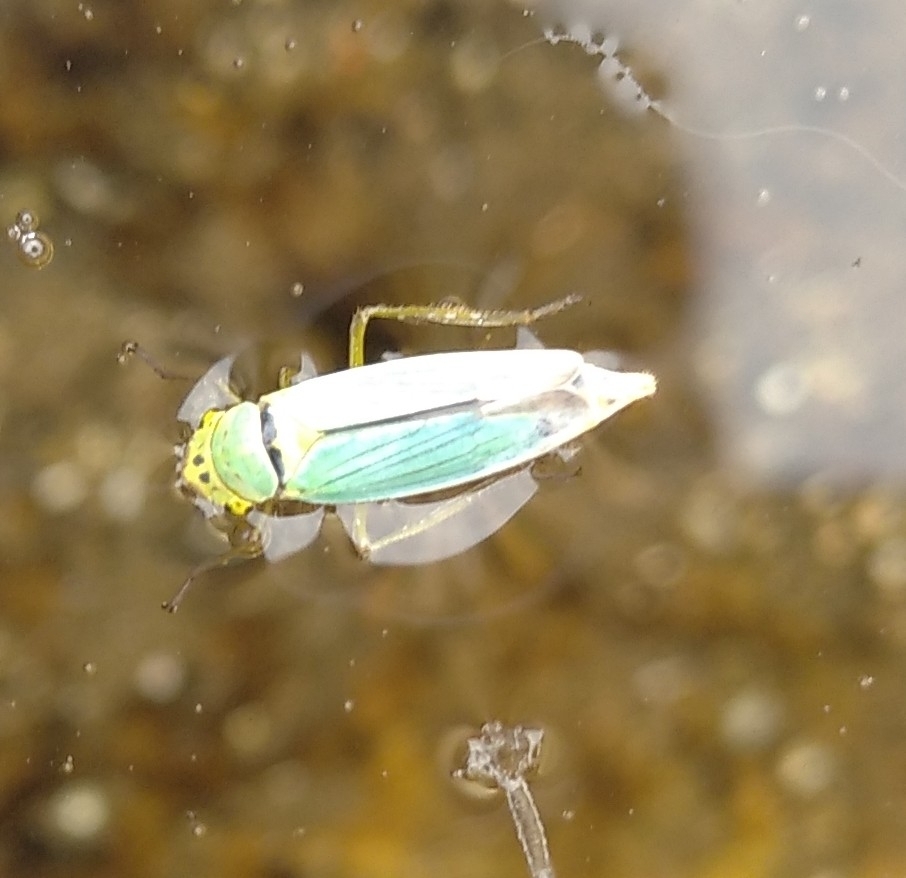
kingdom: Animalia
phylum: Arthropoda
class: Insecta
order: Hemiptera
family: Cicadellidae
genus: Cicadella
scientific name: Cicadella viridis
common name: Leafhopper
